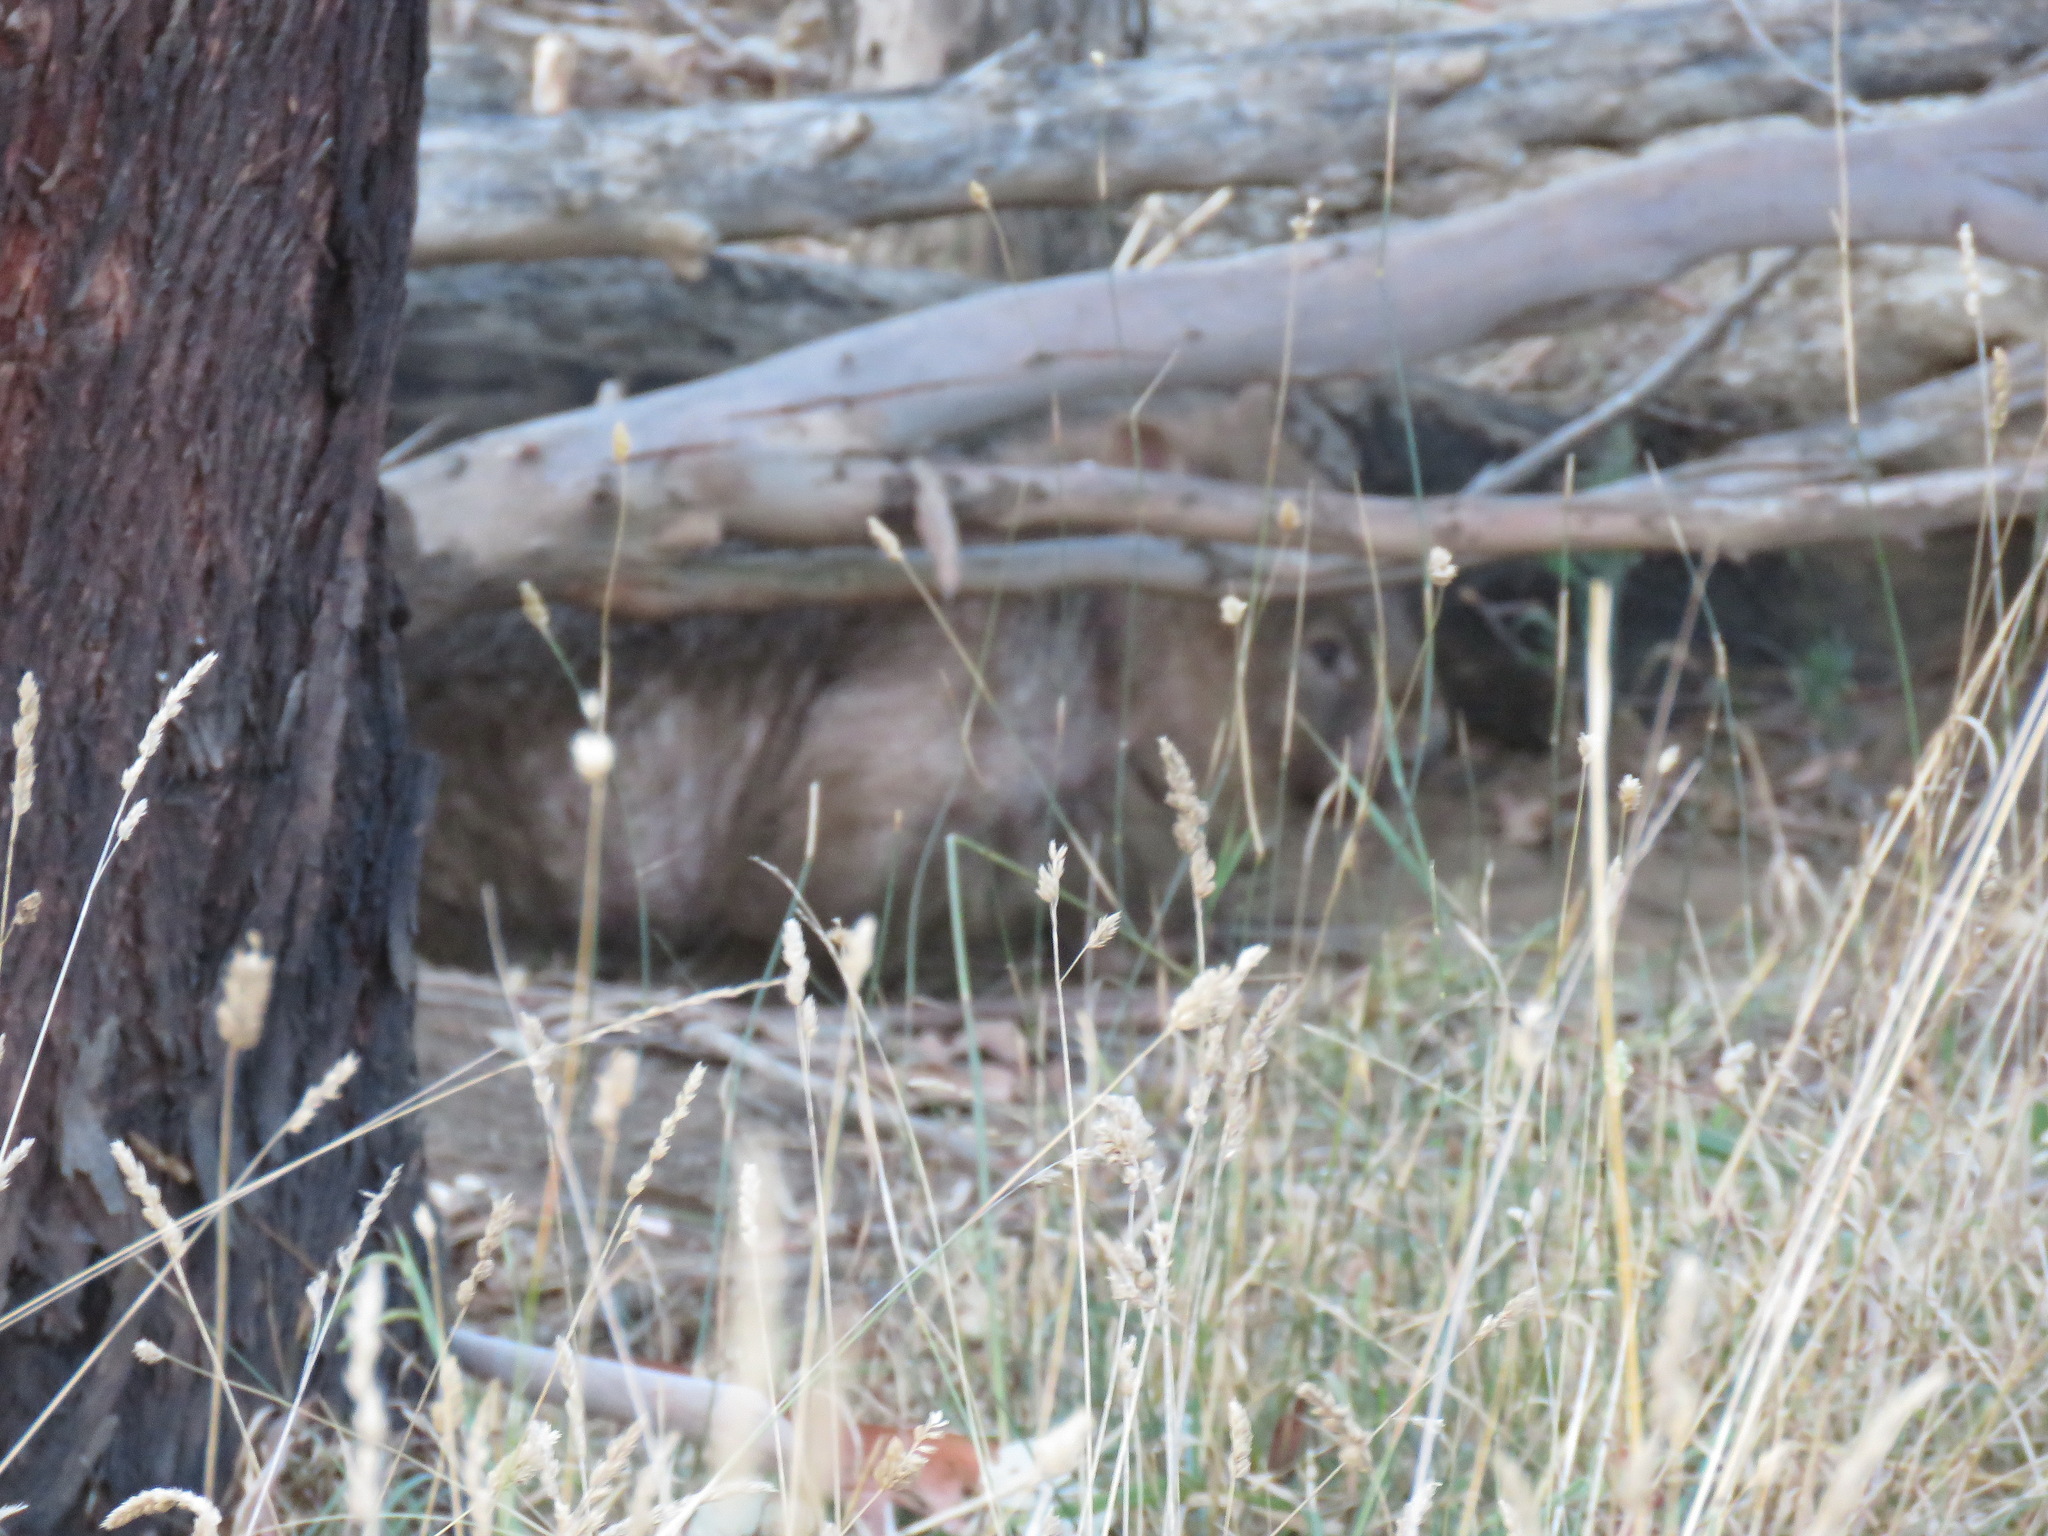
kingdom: Animalia
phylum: Chordata
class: Mammalia
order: Diprotodontia
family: Vombatidae
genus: Vombatus
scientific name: Vombatus ursinus
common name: Common wombat
